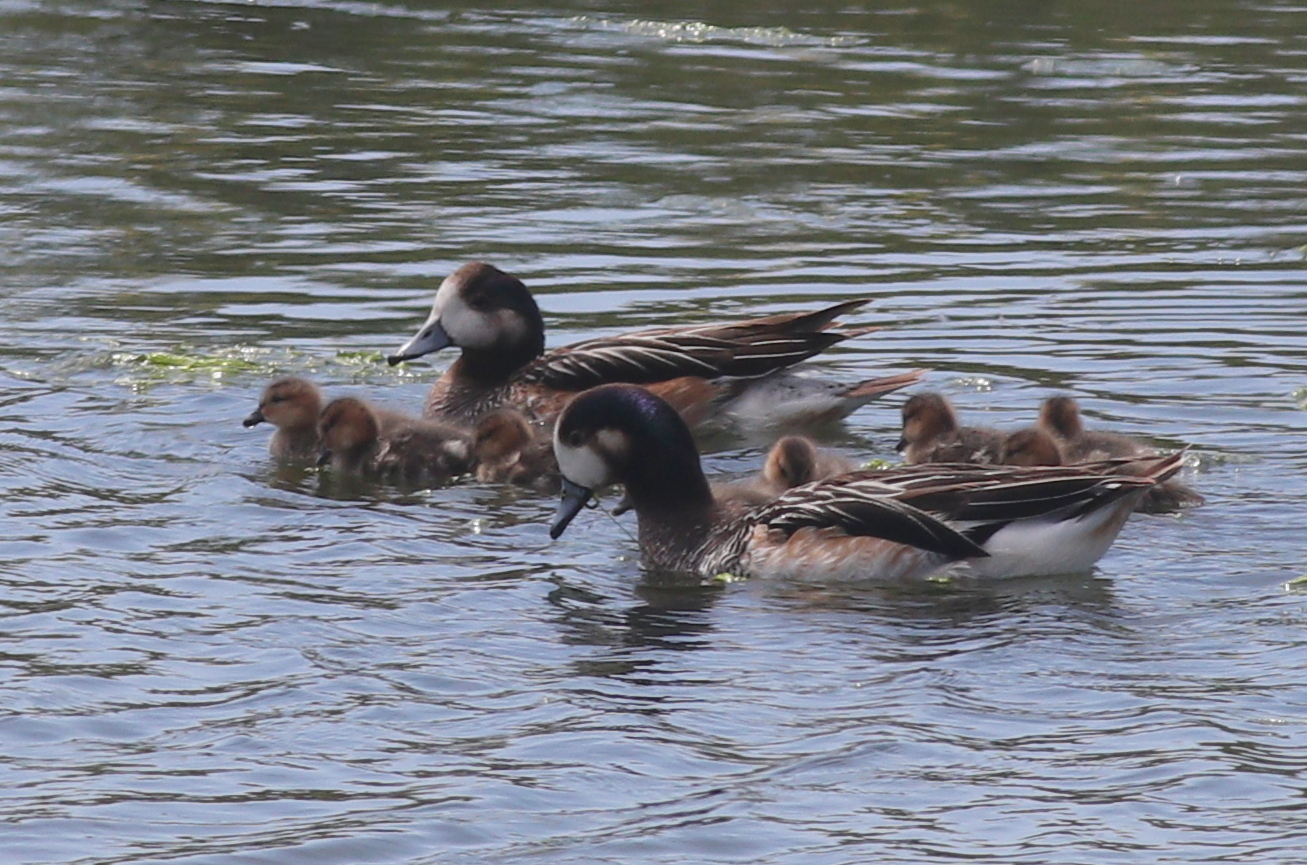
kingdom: Animalia
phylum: Chordata
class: Aves
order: Anseriformes
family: Anatidae
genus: Mareca
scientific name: Mareca sibilatrix
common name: Chiloe wigeon
